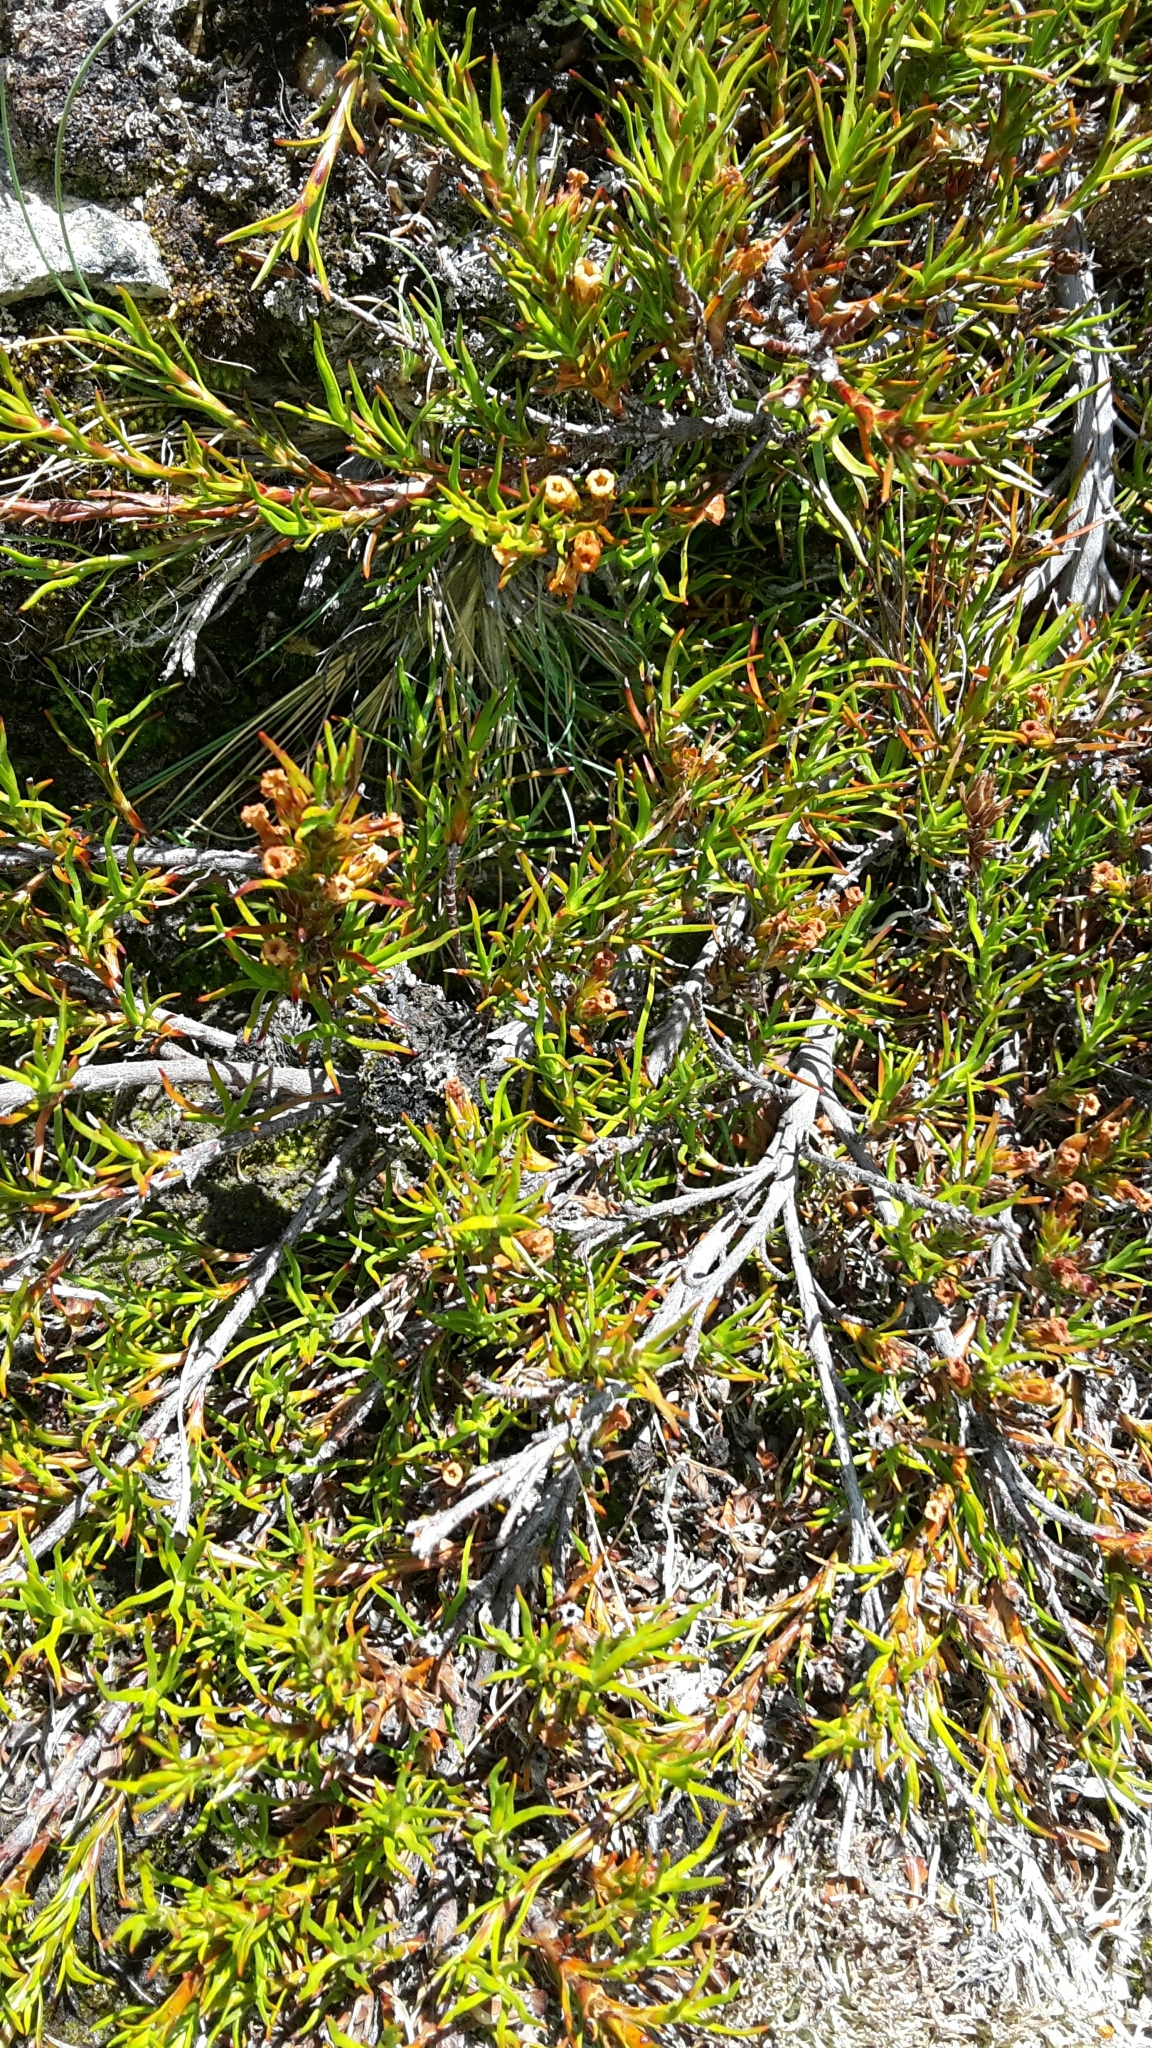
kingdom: Plantae
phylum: Tracheophyta
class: Magnoliopsida
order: Ericales
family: Ericaceae
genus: Dracophyllum
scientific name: Dracophyllum pronum
